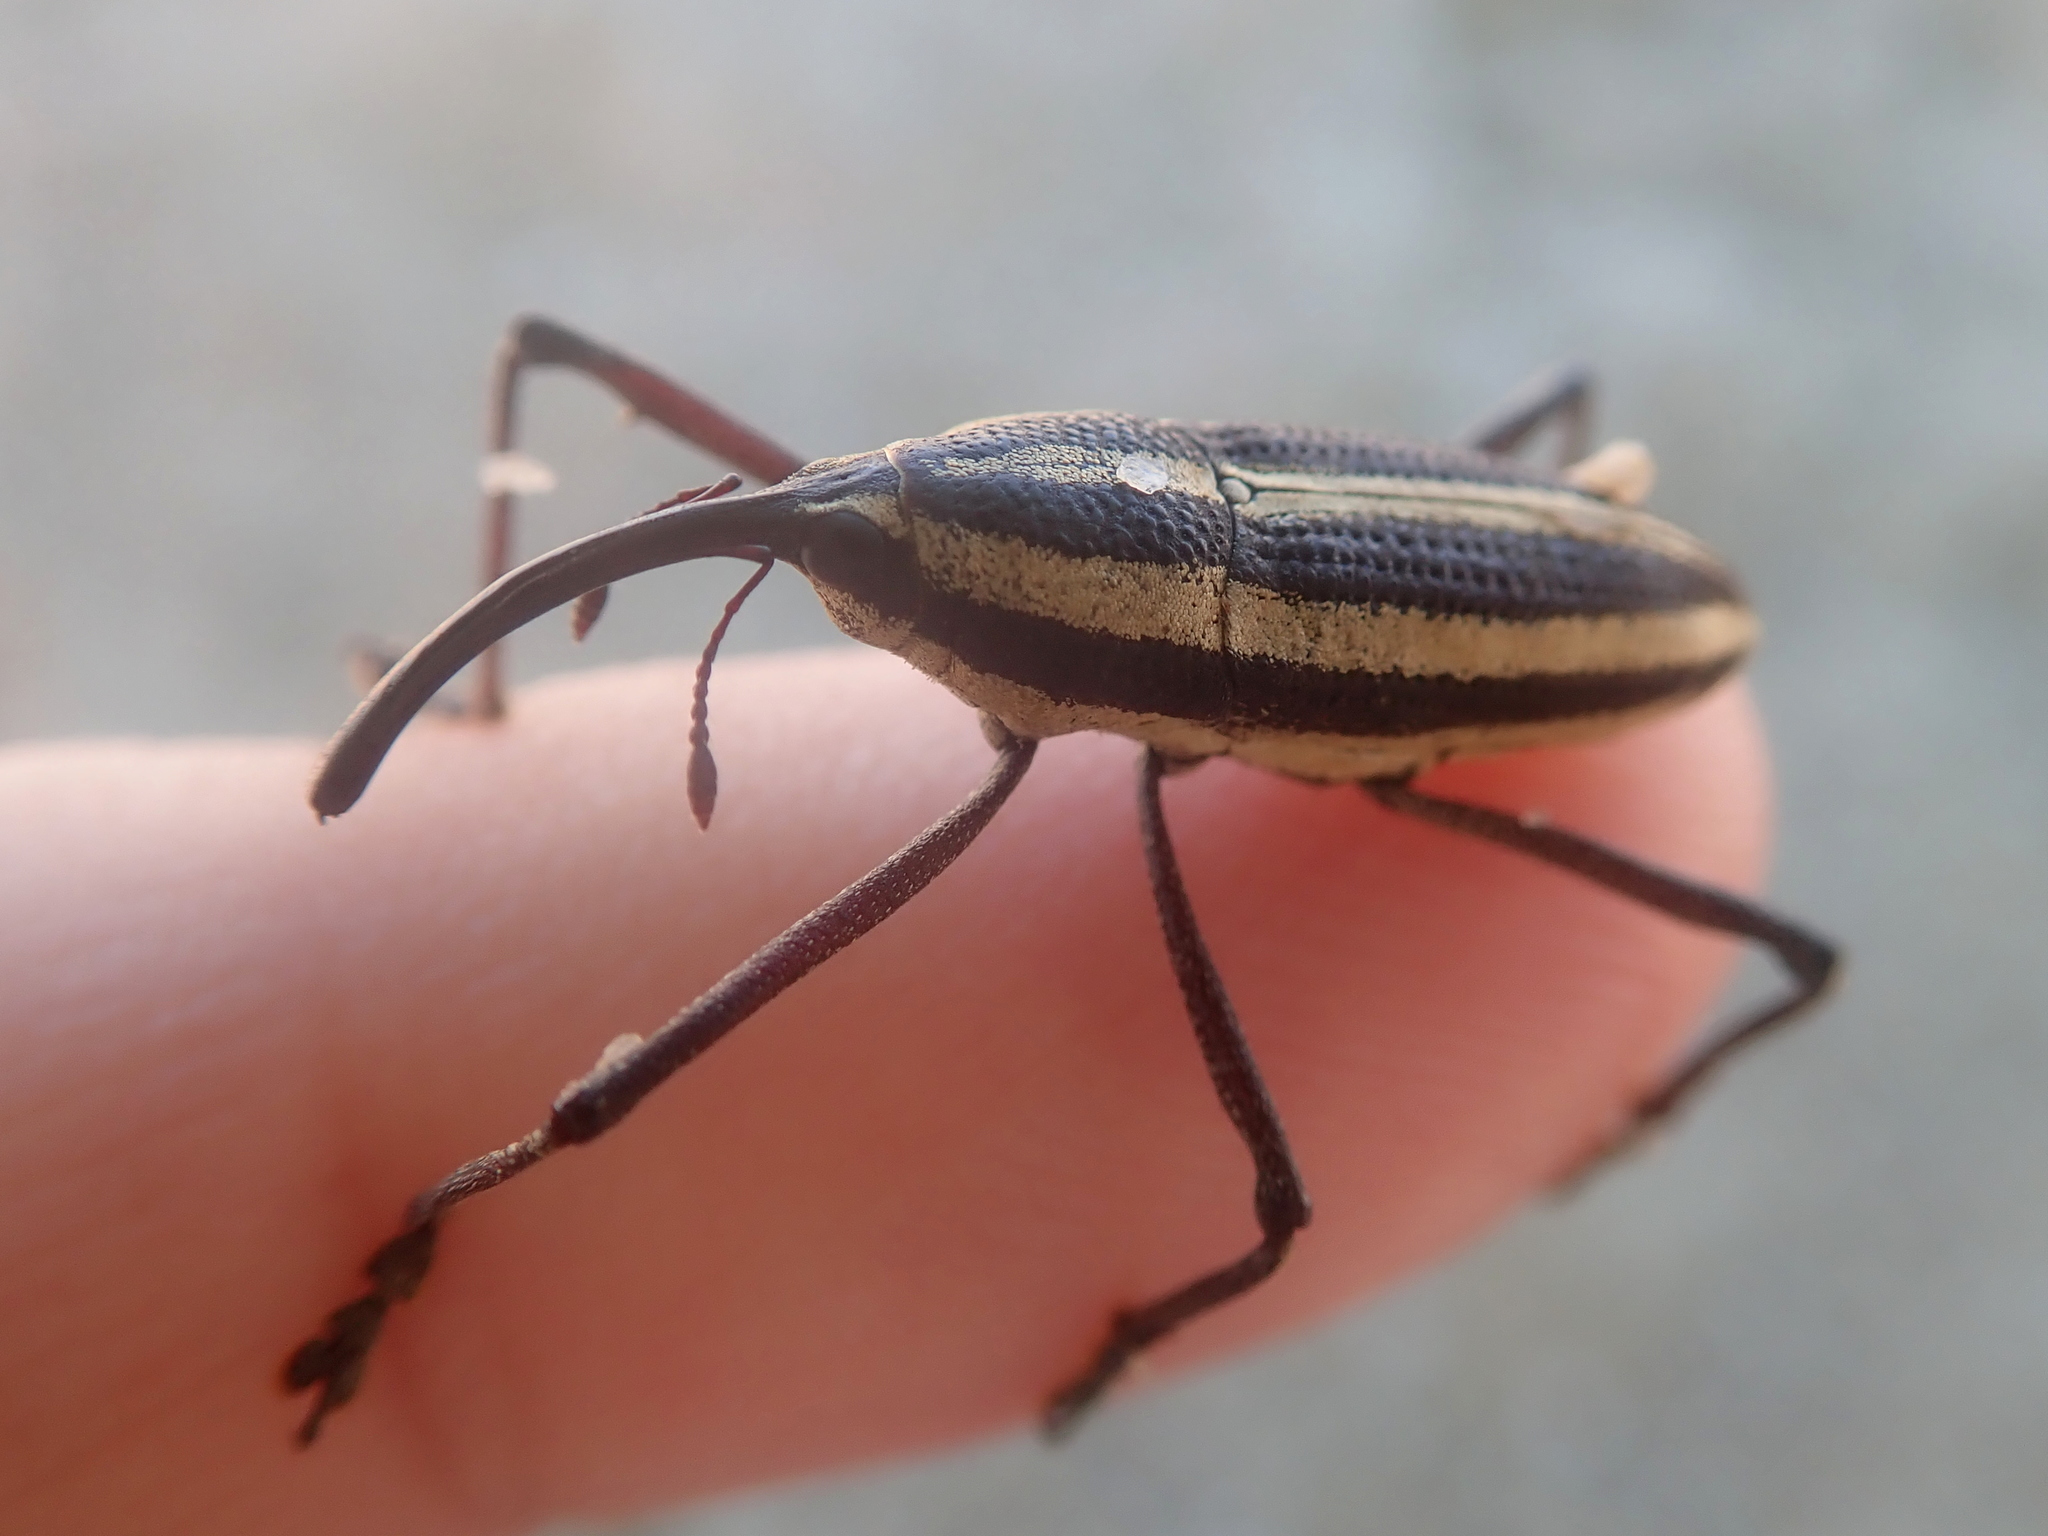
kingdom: Animalia
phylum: Arthropoda
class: Insecta
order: Coleoptera
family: Curculionidae
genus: Desmosomus
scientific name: Desmosomus longipes
